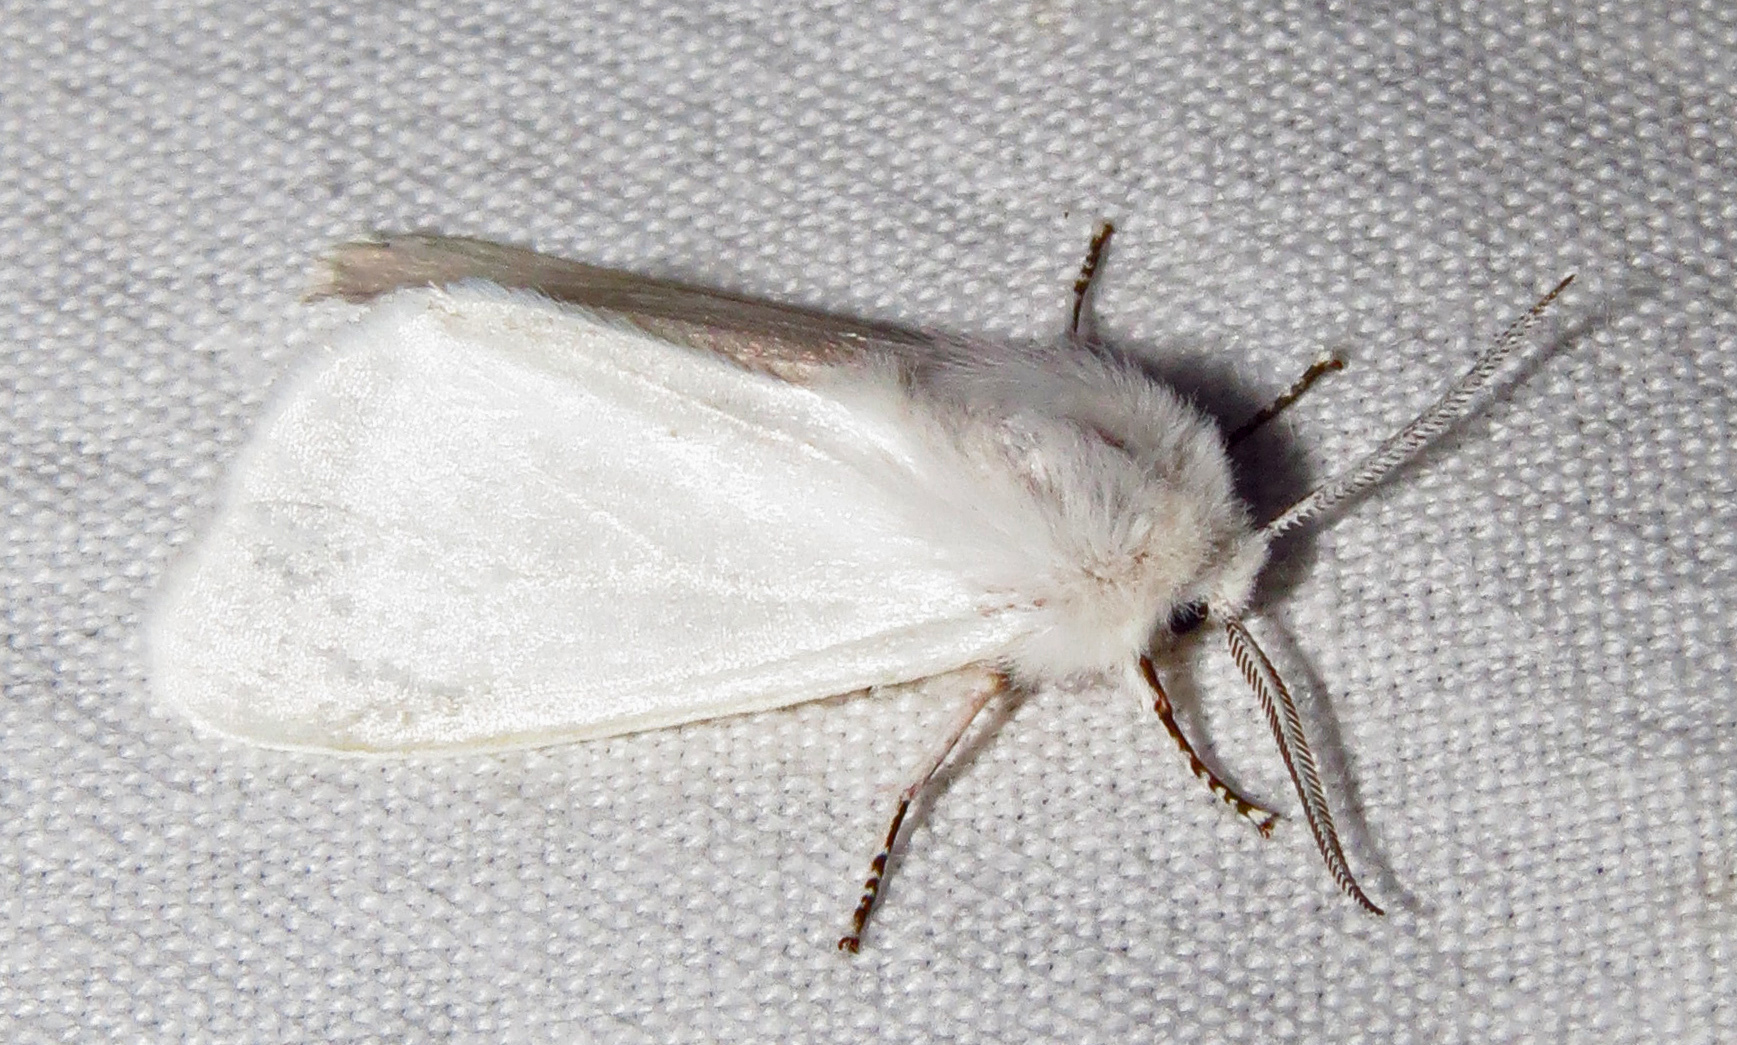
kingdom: Animalia
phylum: Arthropoda
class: Insecta
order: Lepidoptera
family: Erebidae
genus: Hyphantria
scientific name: Hyphantria cunea
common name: American white moth
